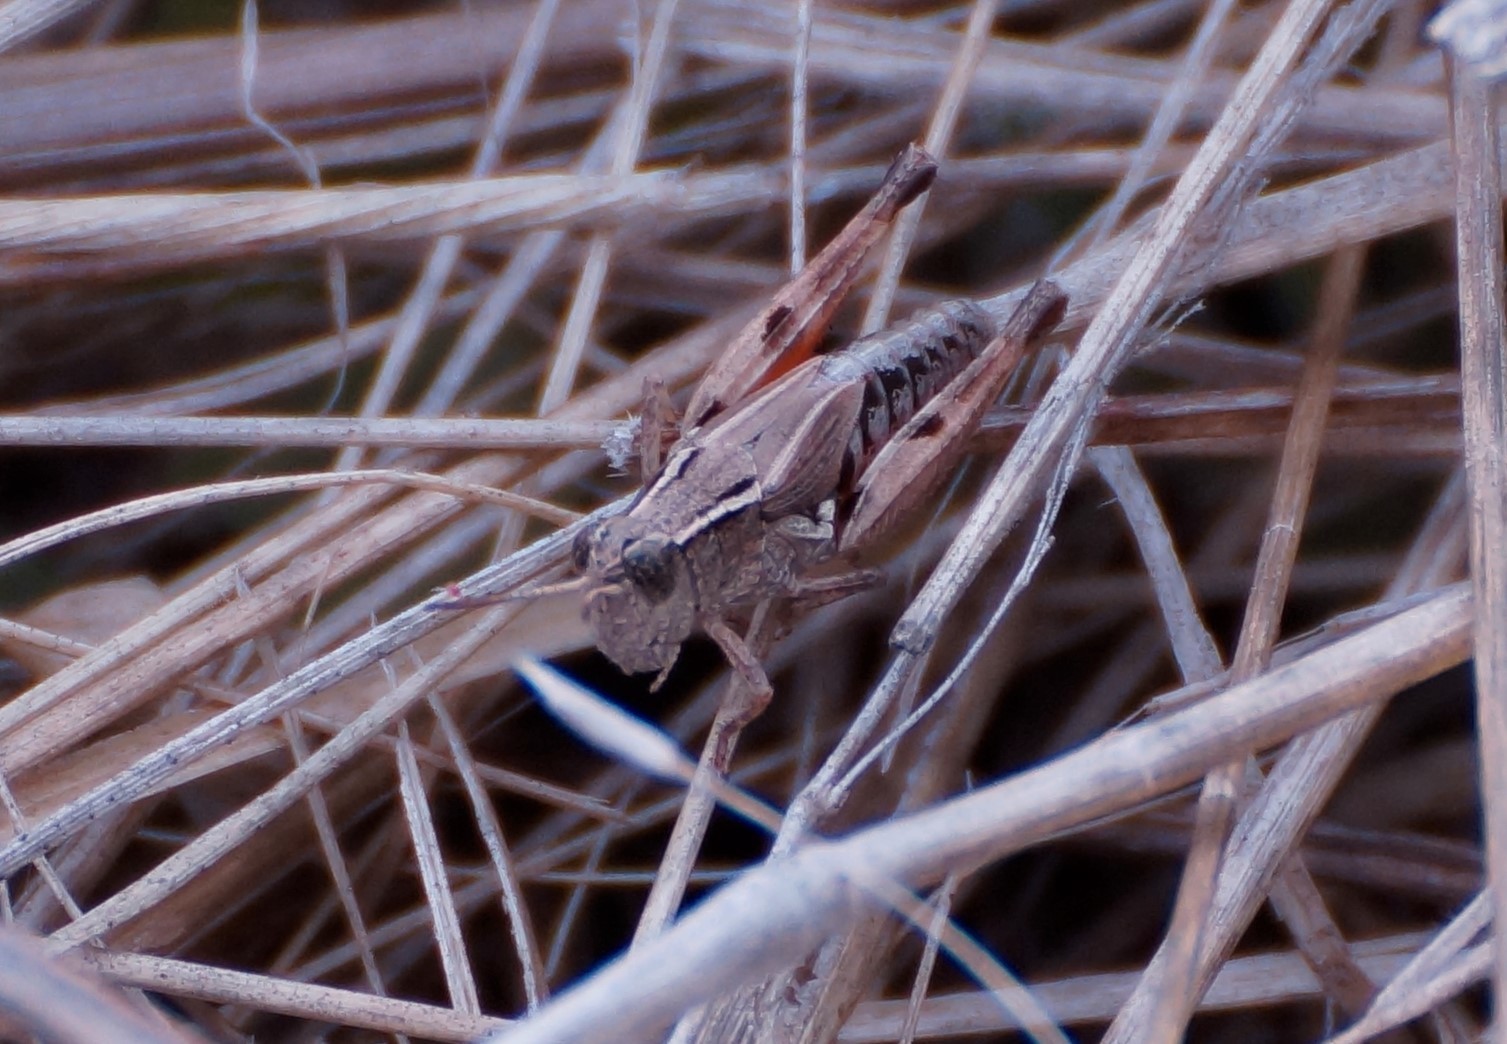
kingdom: Animalia
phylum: Arthropoda
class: Insecta
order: Orthoptera
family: Acrididae
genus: Phaulacridium
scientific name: Phaulacridium vittatum
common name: Wingless grasshopper
